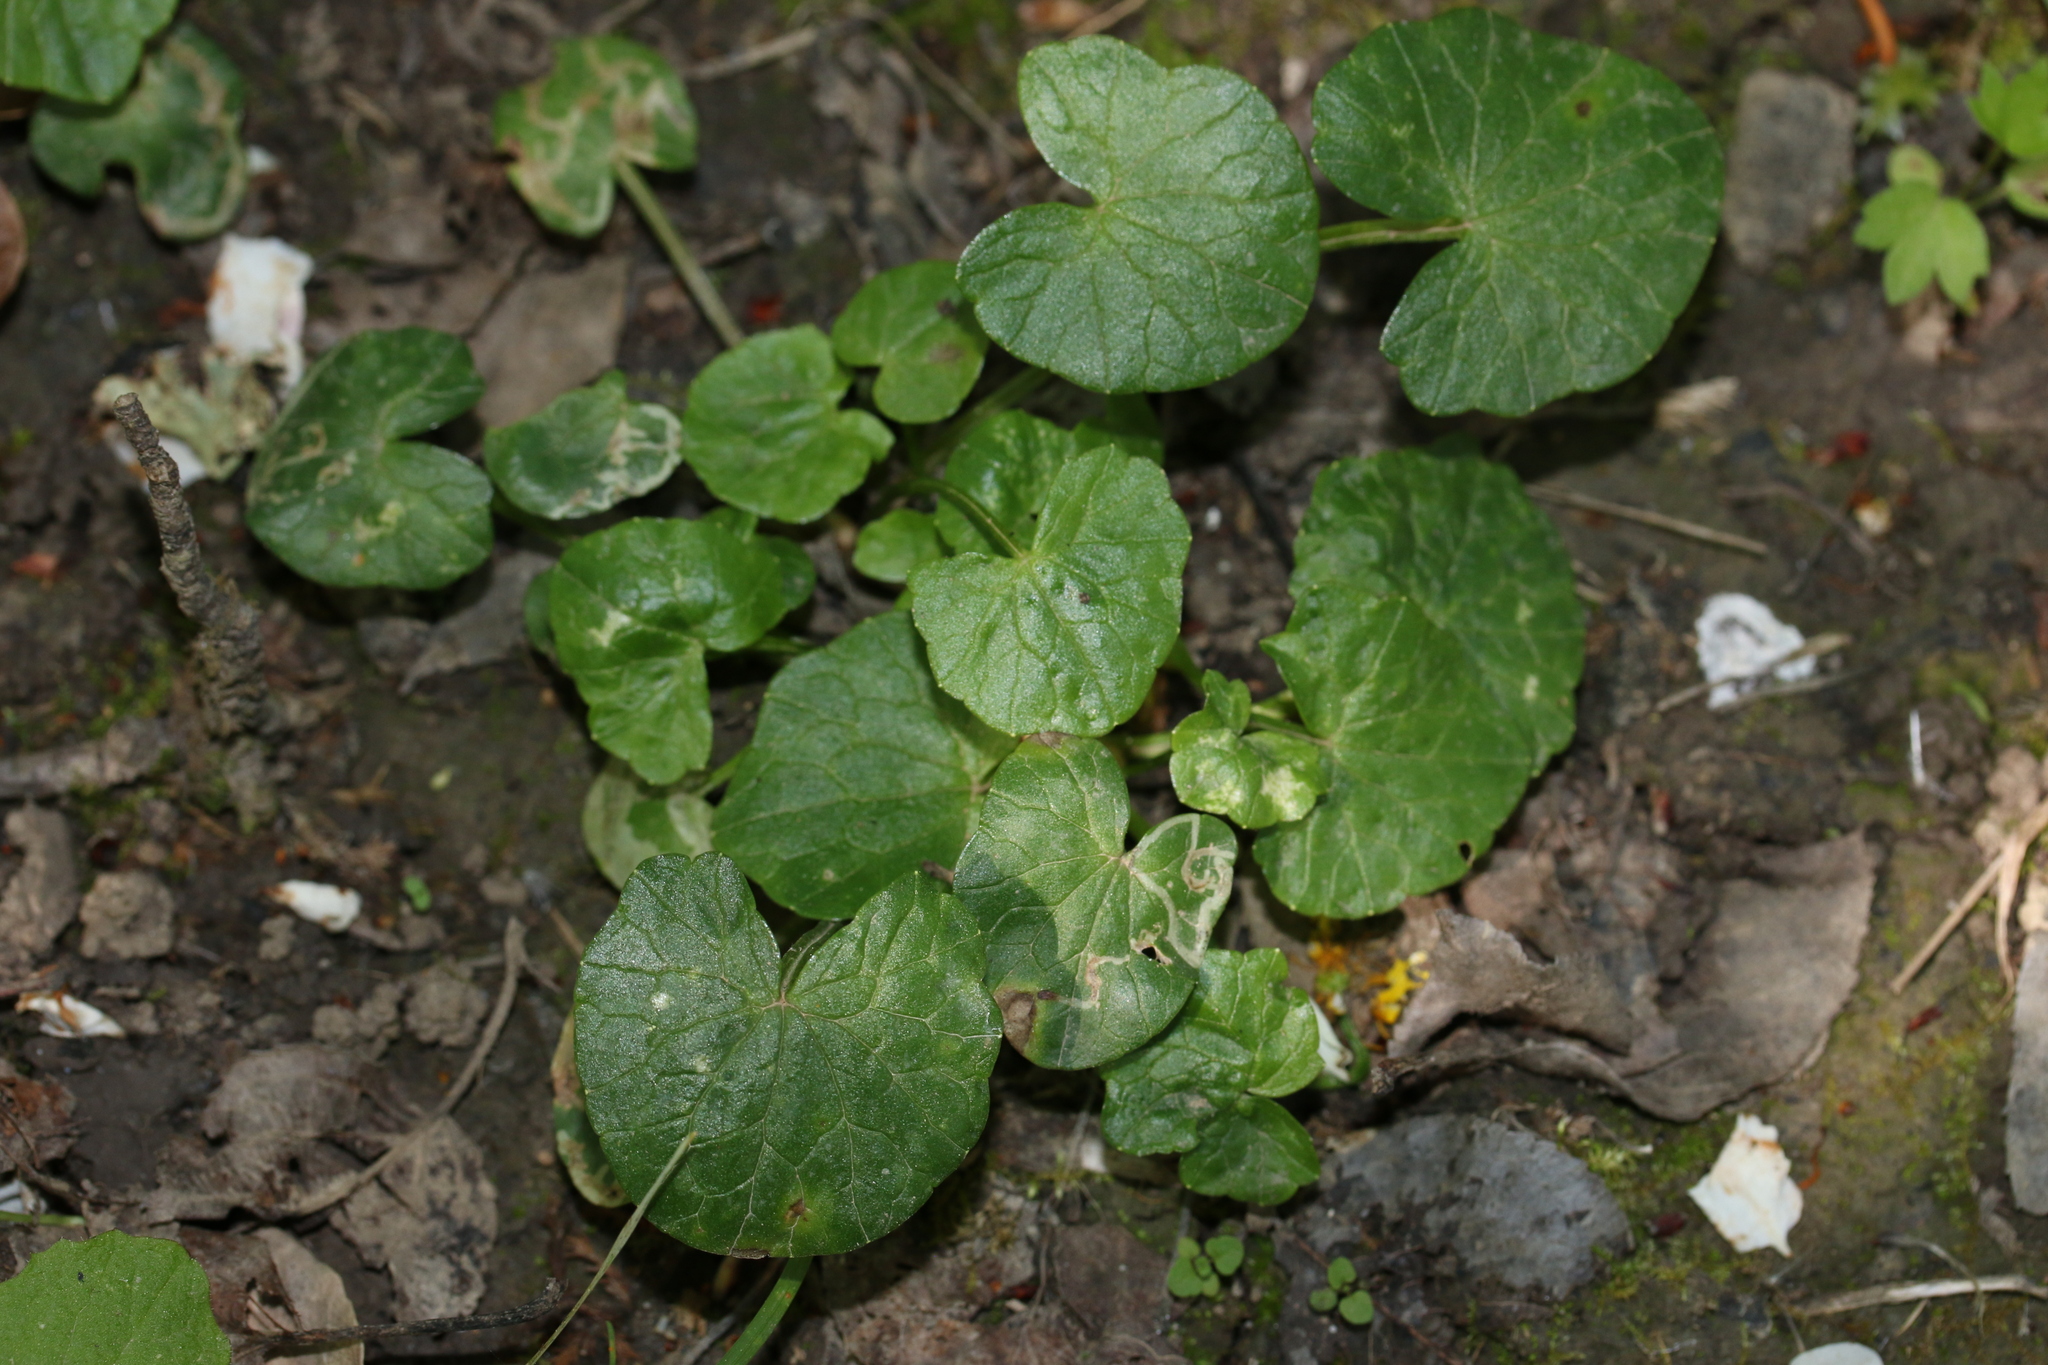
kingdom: Plantae
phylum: Tracheophyta
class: Magnoliopsida
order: Ranunculales
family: Ranunculaceae
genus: Ficaria
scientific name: Ficaria verna
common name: Lesser celandine
